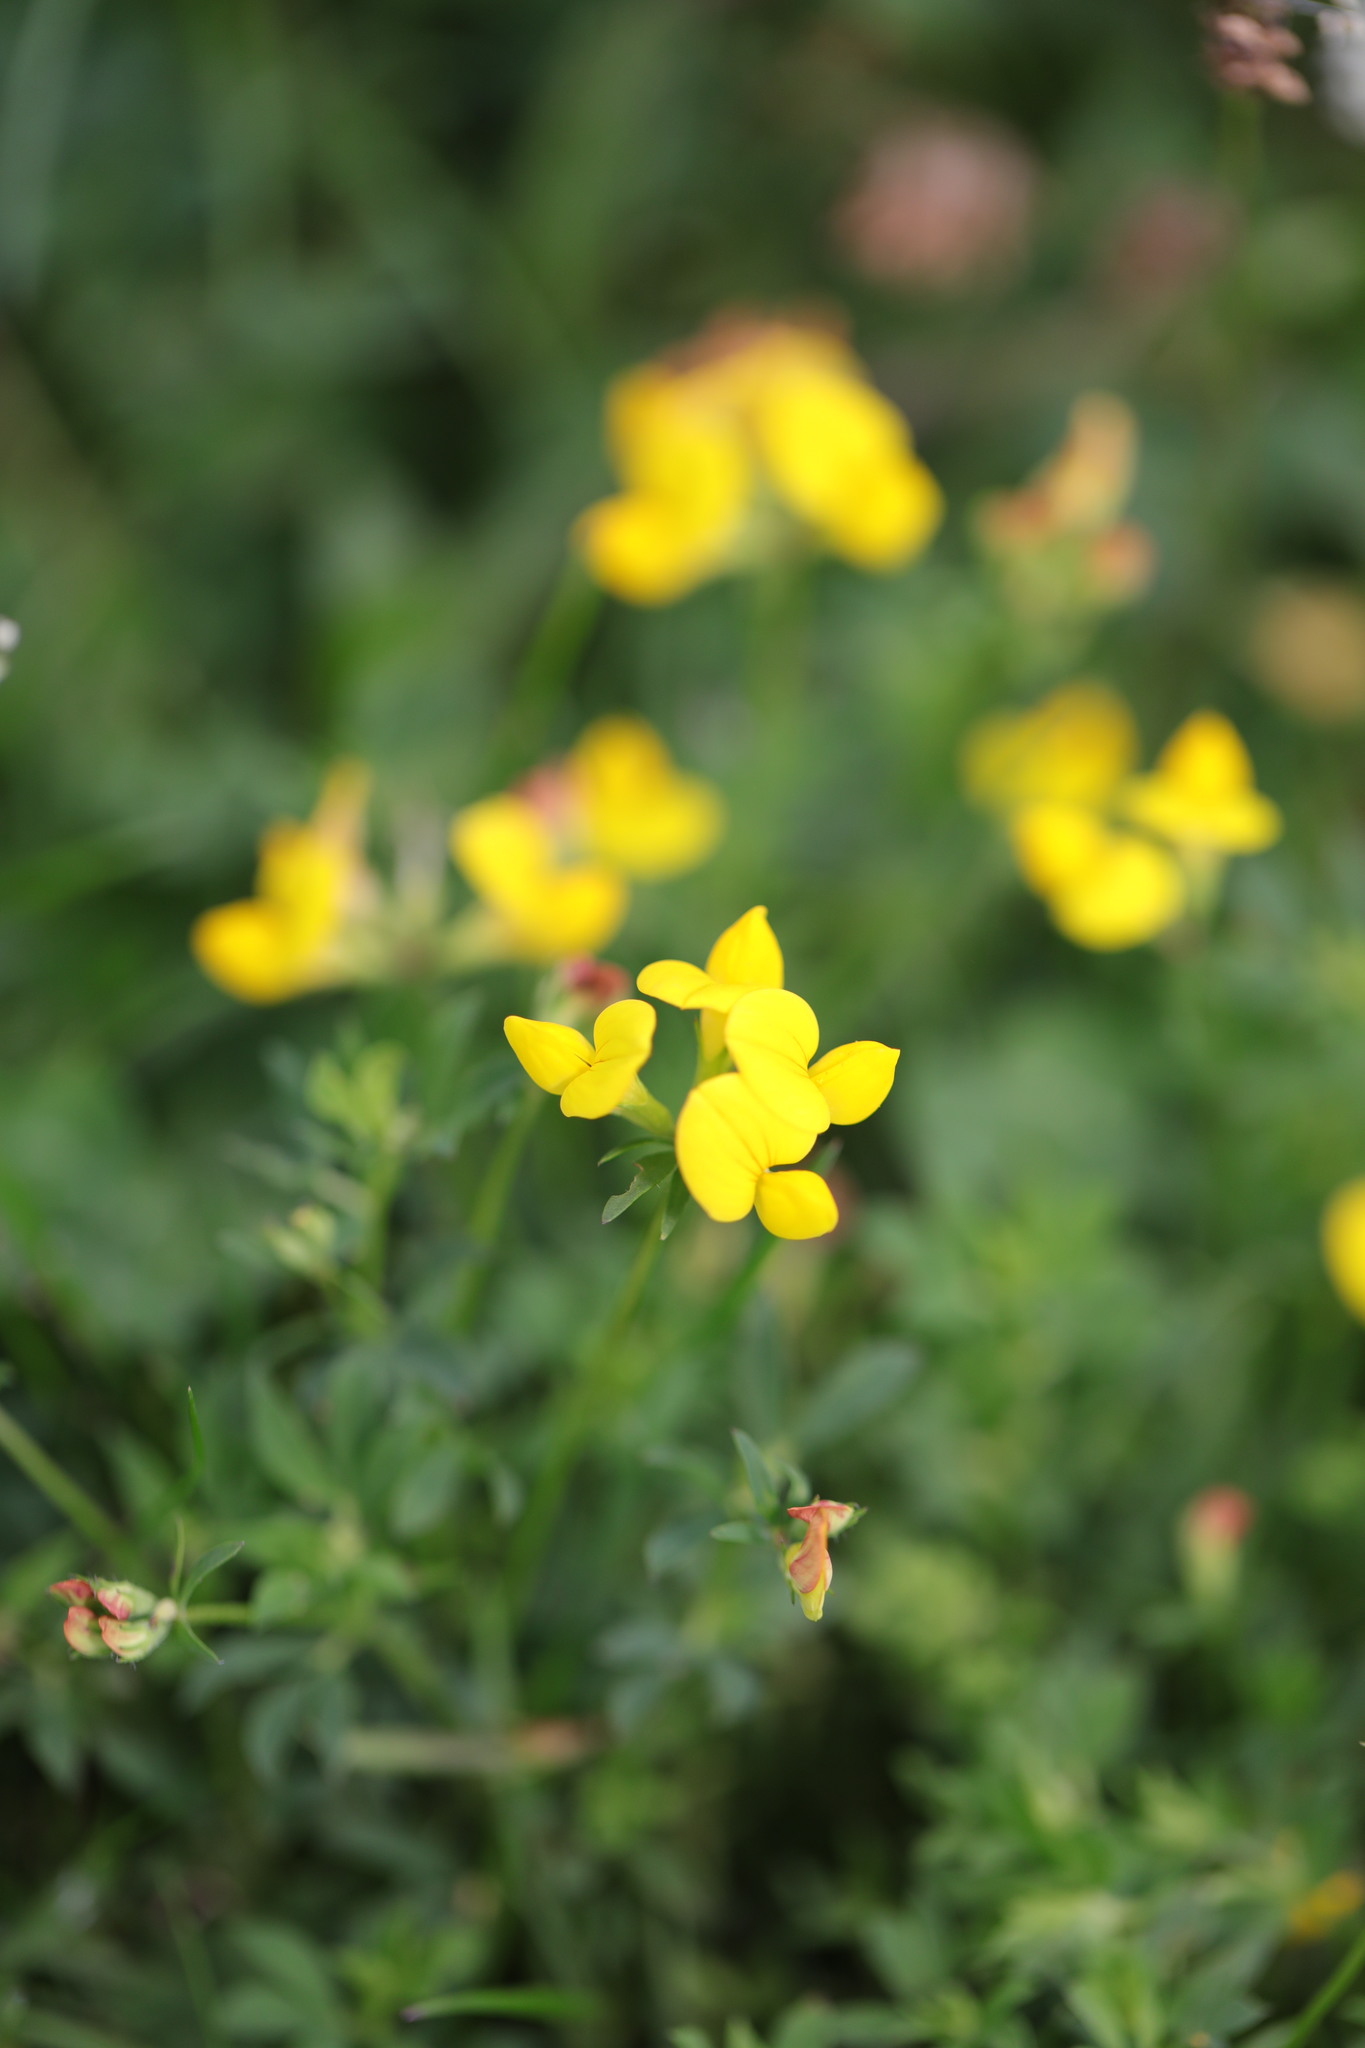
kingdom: Plantae
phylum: Tracheophyta
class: Magnoliopsida
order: Fabales
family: Fabaceae
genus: Lotus
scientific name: Lotus corniculatus
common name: Common bird's-foot-trefoil
